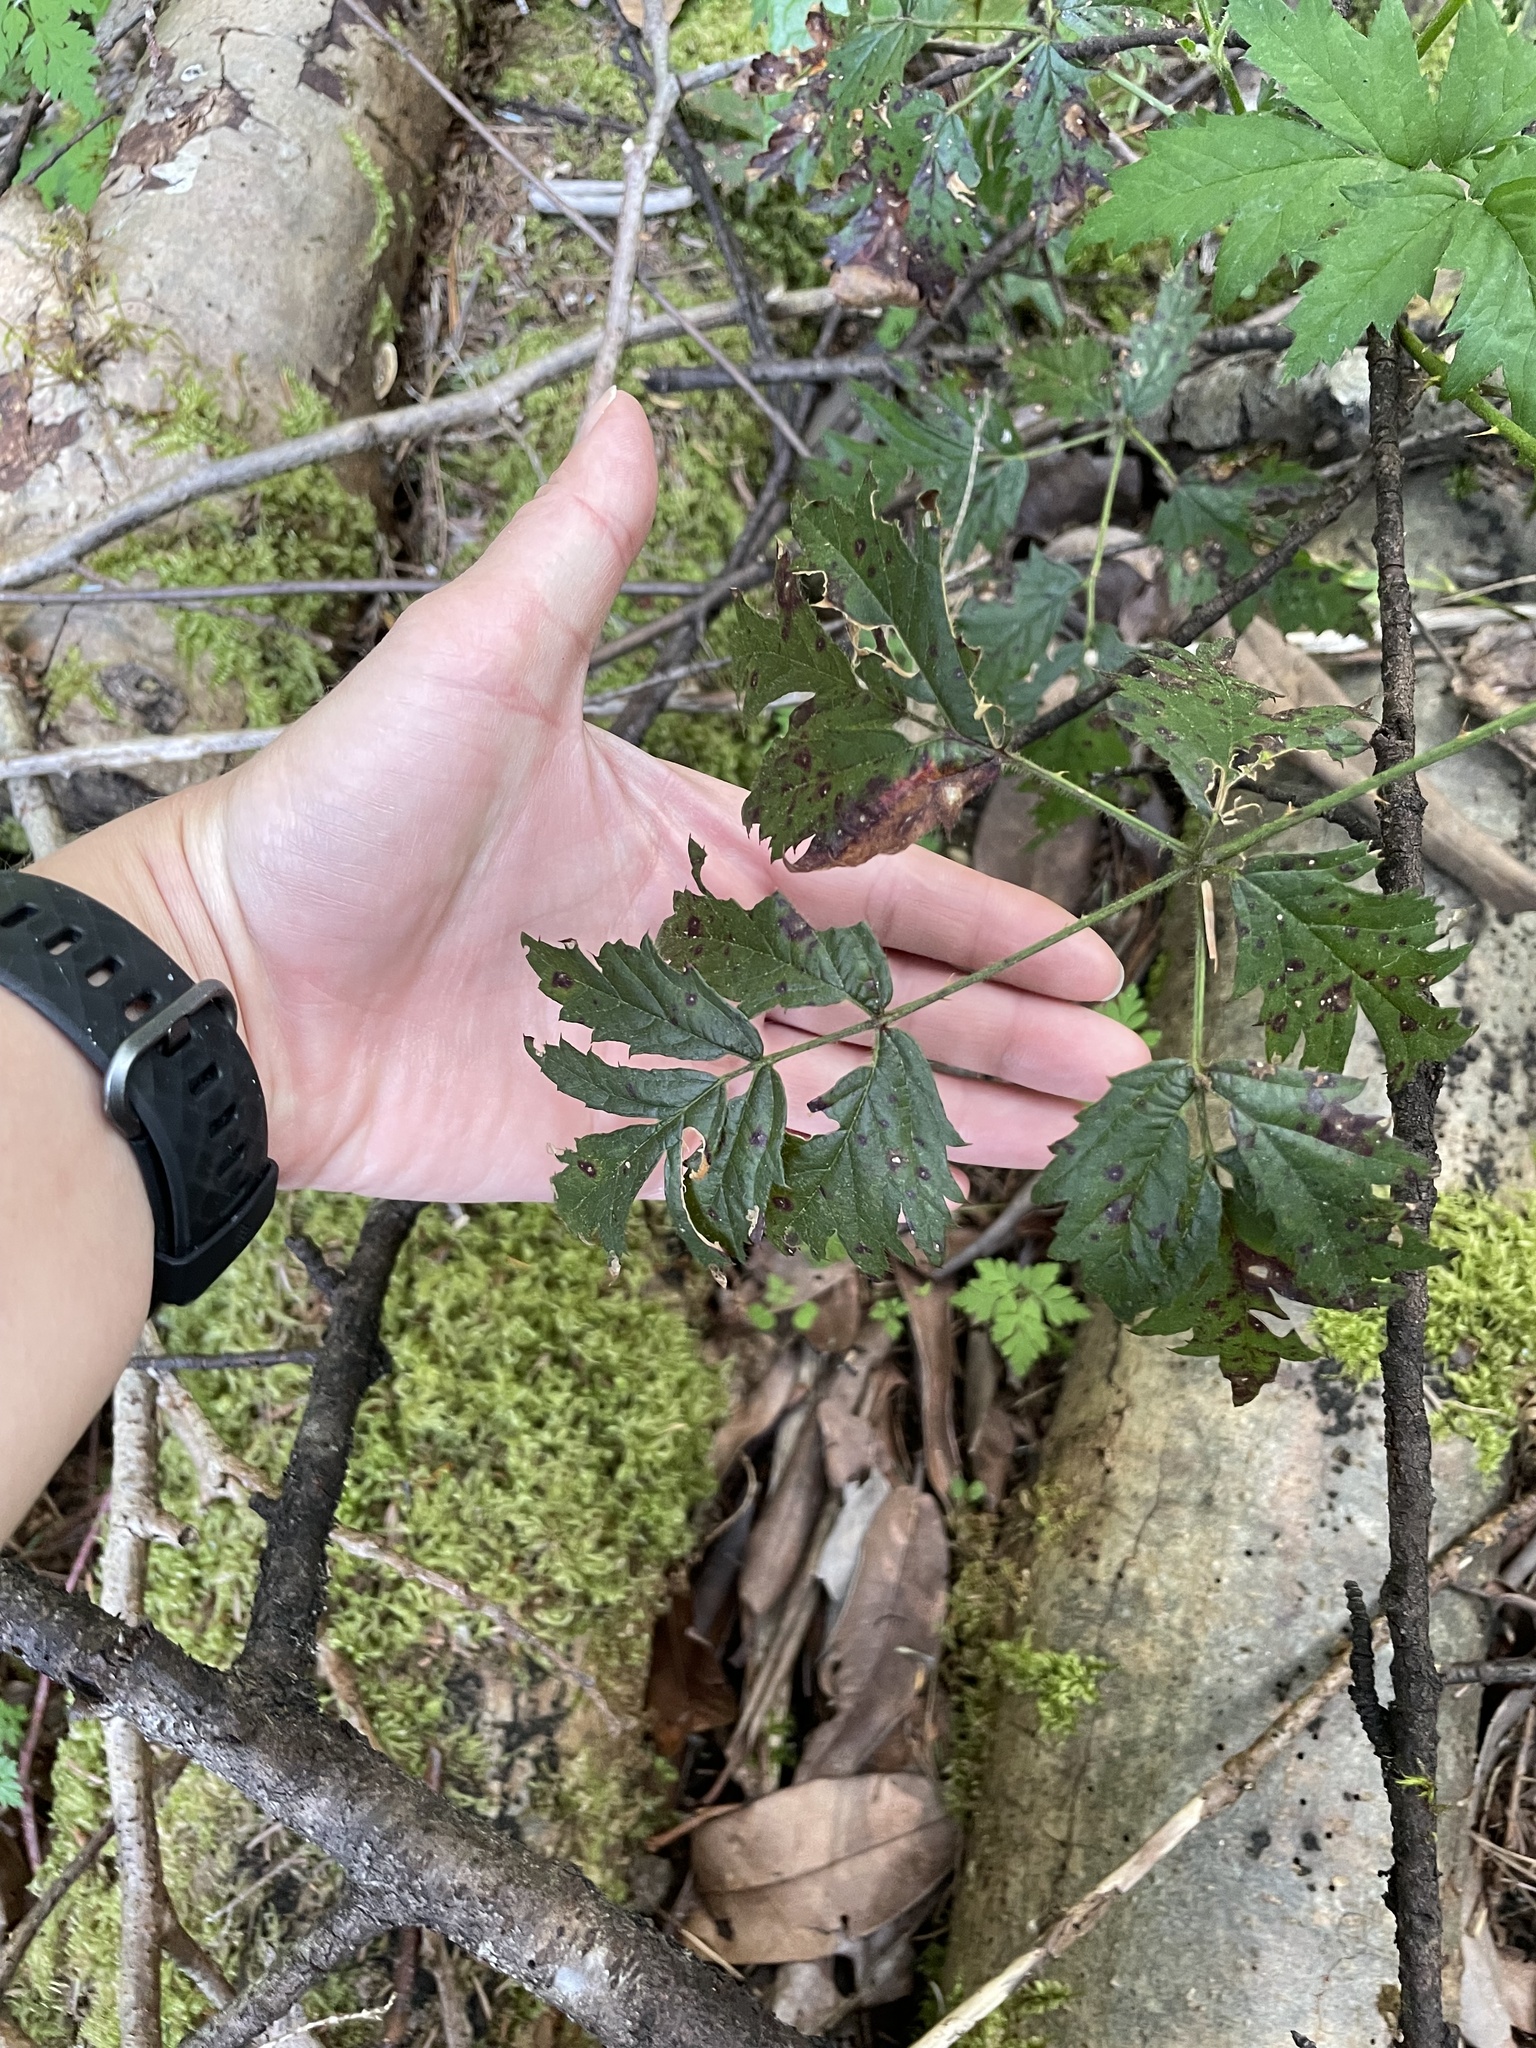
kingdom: Plantae
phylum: Tracheophyta
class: Magnoliopsida
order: Rosales
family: Rosaceae
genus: Rubus
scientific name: Rubus laciniatus
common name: Evergreen blackberry
